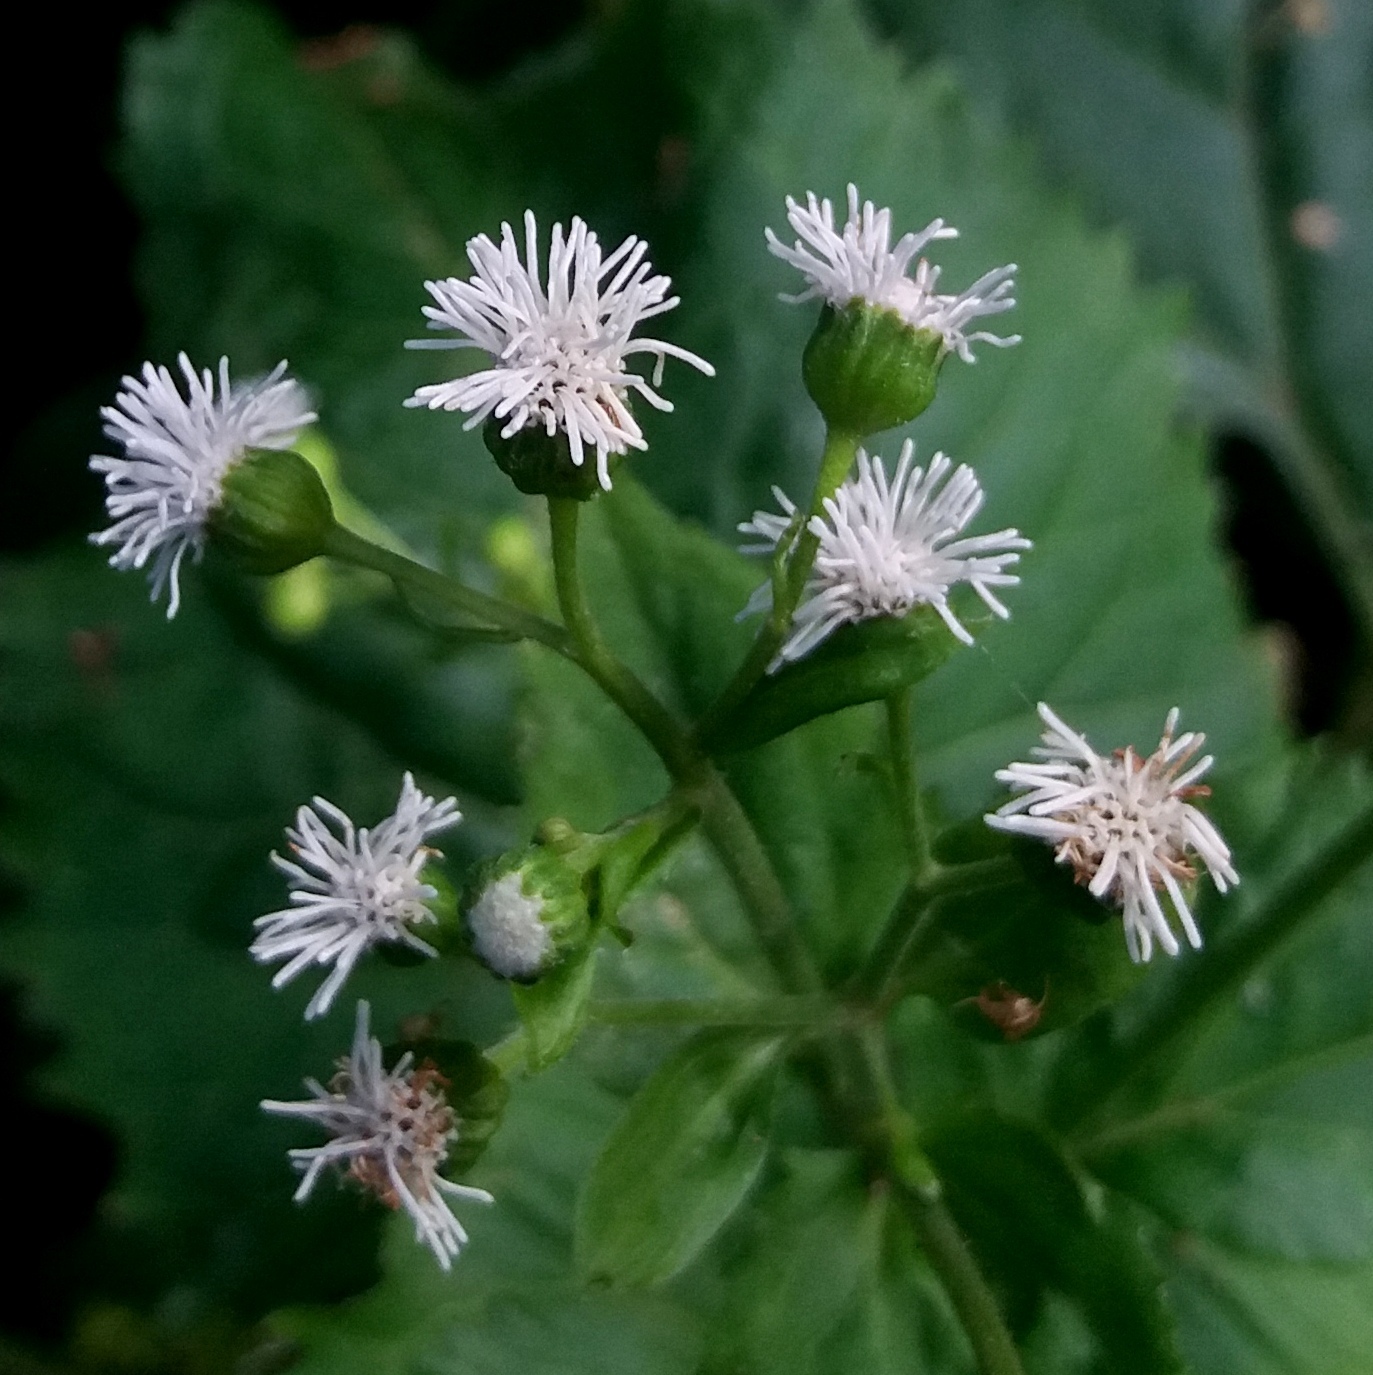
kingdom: Plantae
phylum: Tracheophyta
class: Magnoliopsida
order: Asterales
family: Asteraceae
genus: Adenostemma
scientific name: Adenostemma brasilianum
